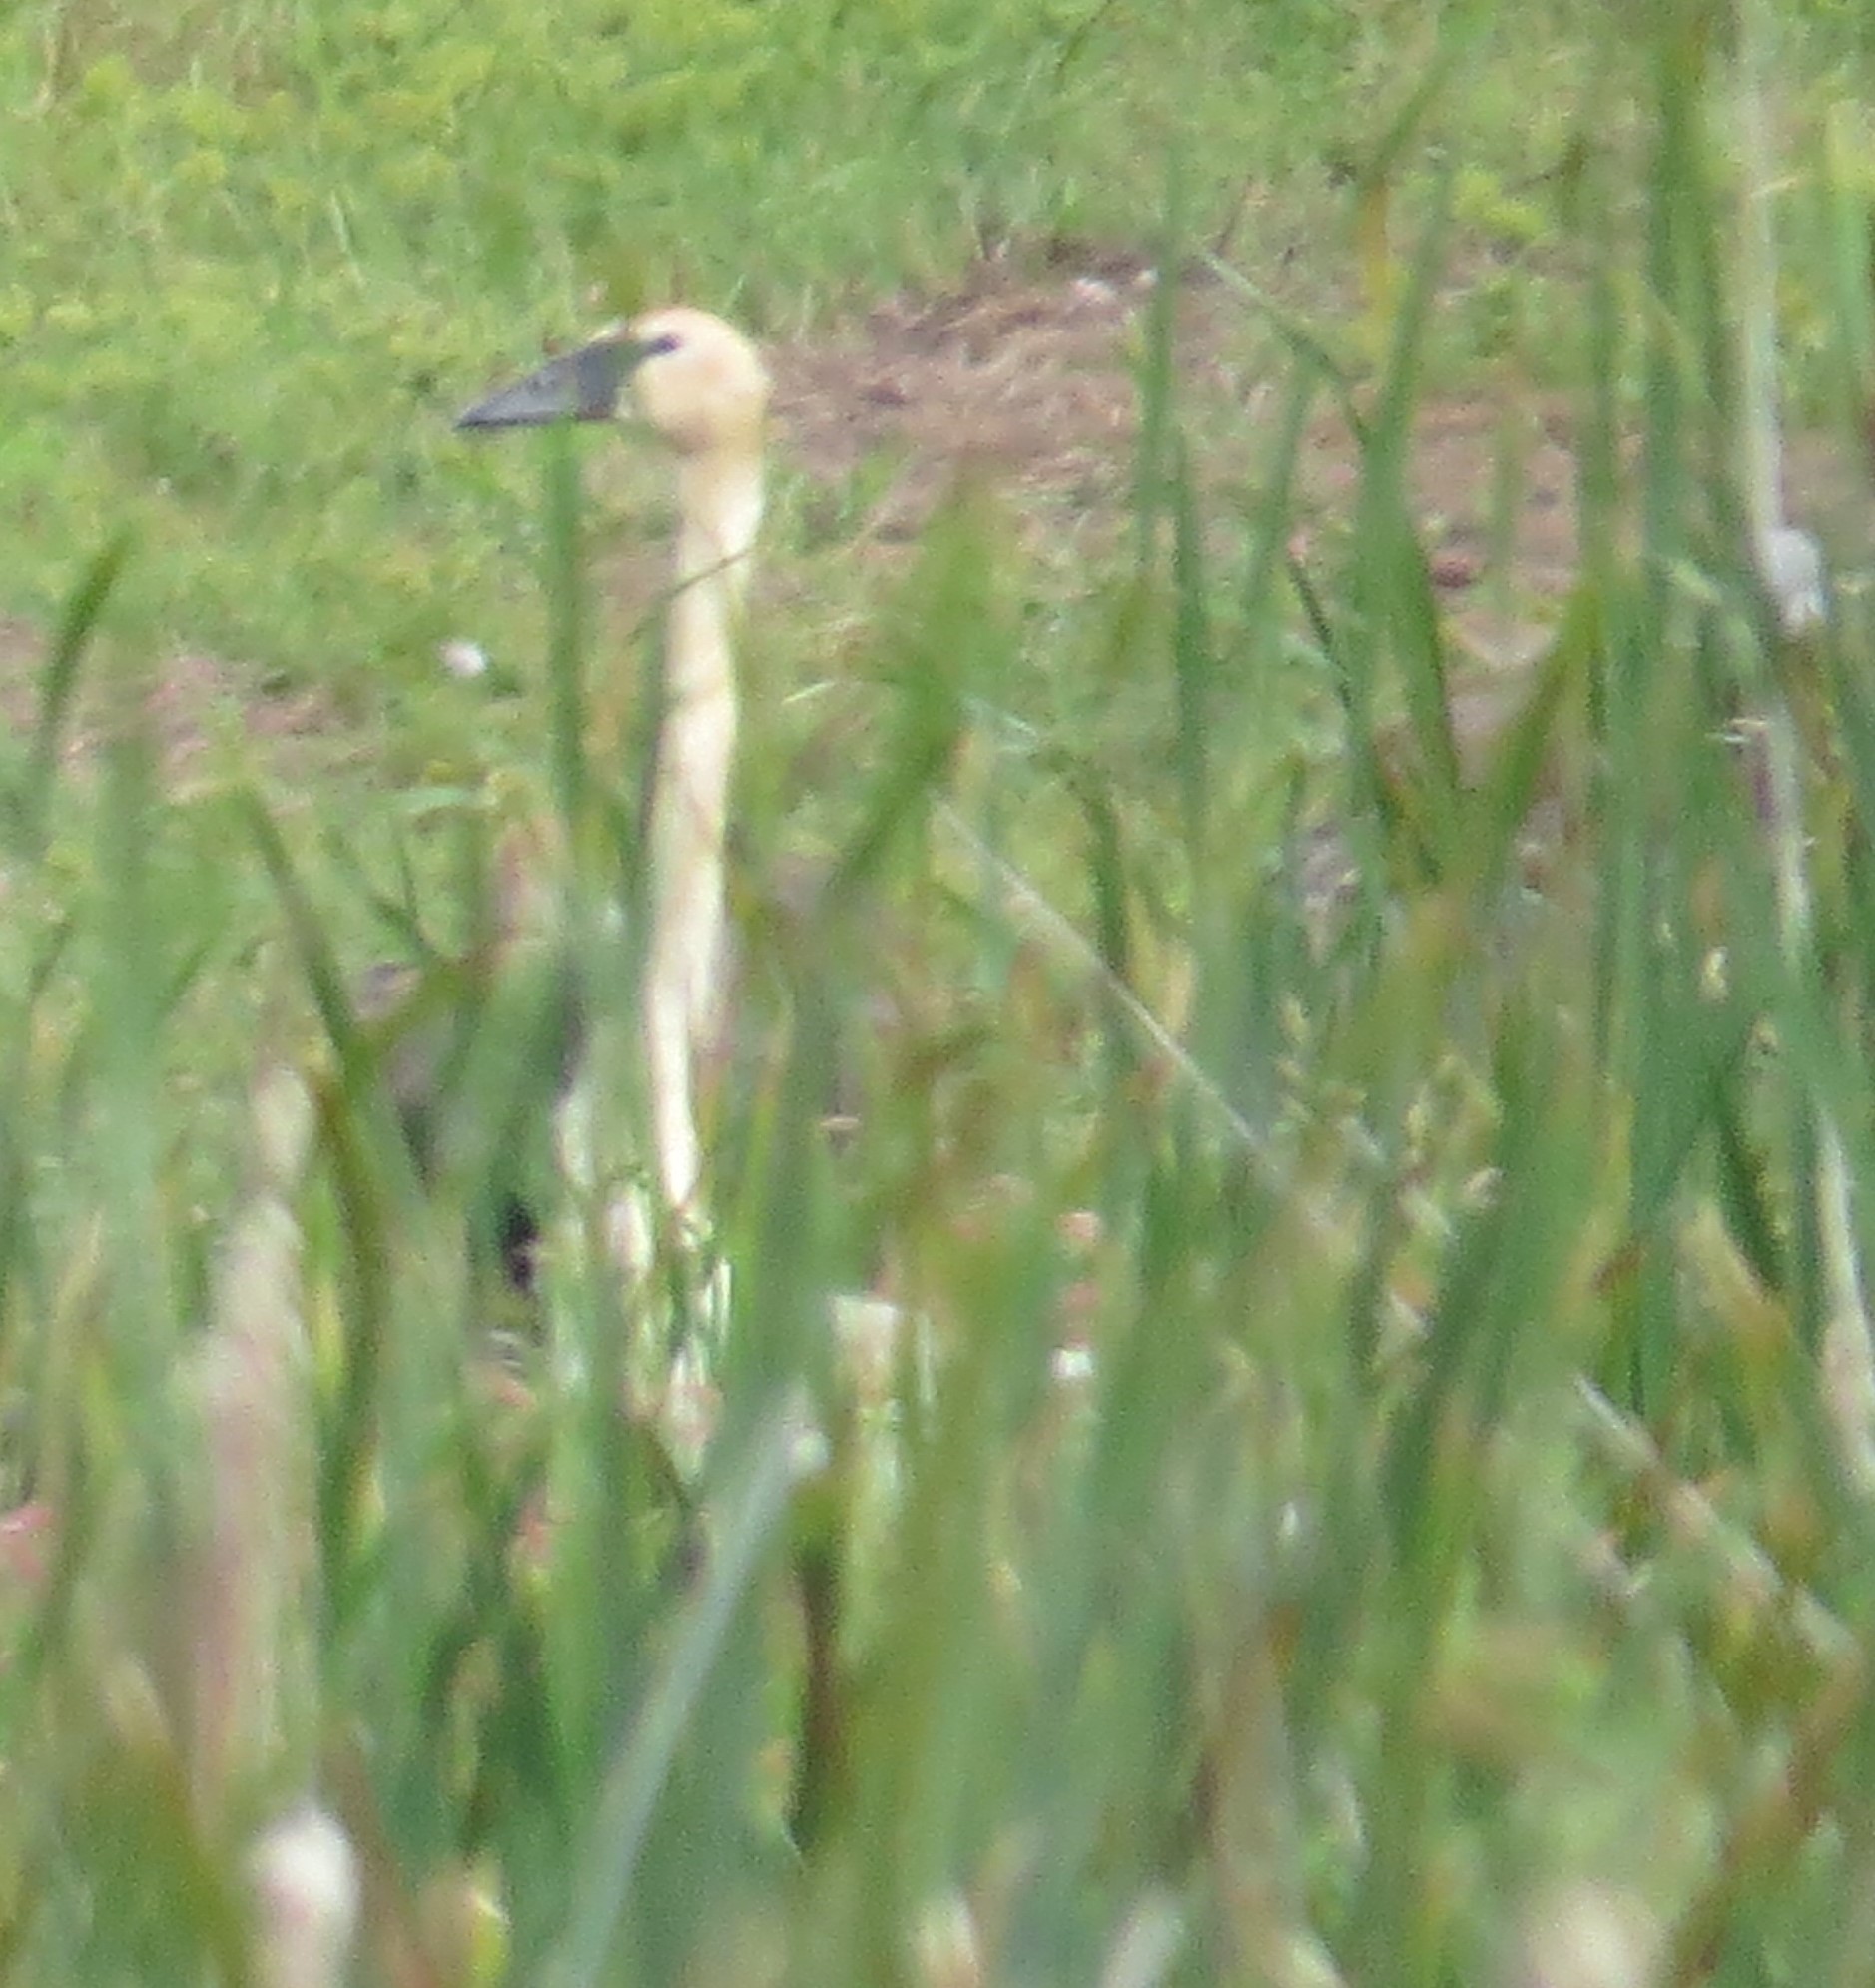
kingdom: Animalia
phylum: Chordata
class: Aves
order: Anseriformes
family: Anatidae
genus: Cygnus
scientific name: Cygnus buccinator
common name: Trumpeter swan
